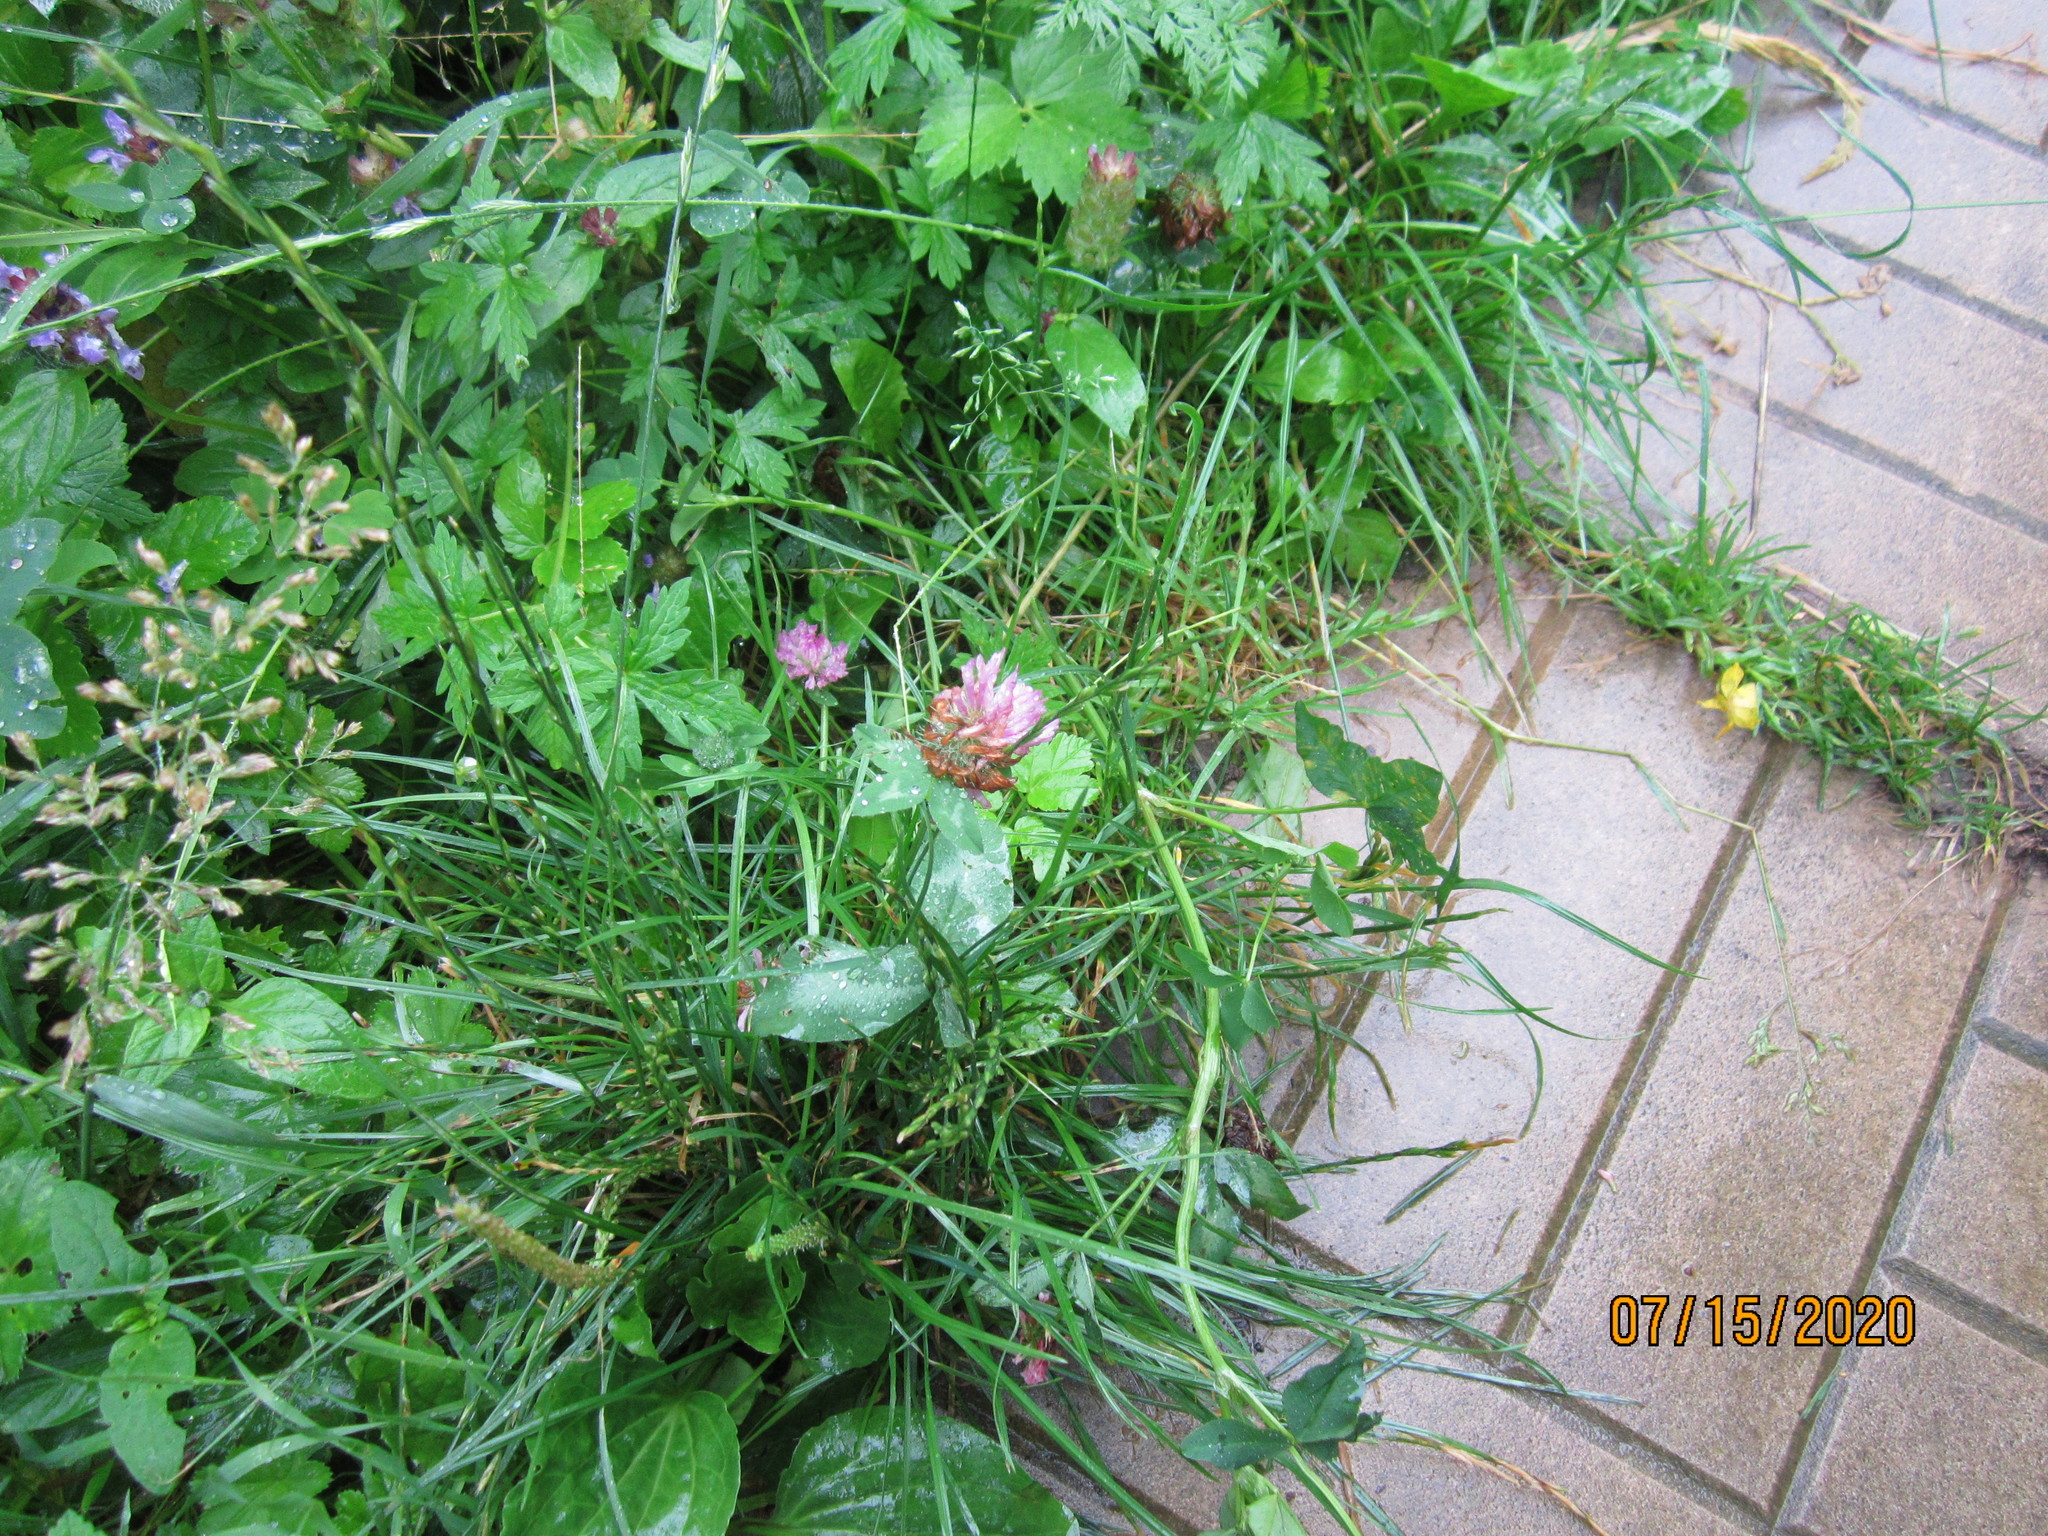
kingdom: Plantae
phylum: Tracheophyta
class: Magnoliopsida
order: Fabales
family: Fabaceae
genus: Trifolium
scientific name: Trifolium pratense
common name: Red clover
